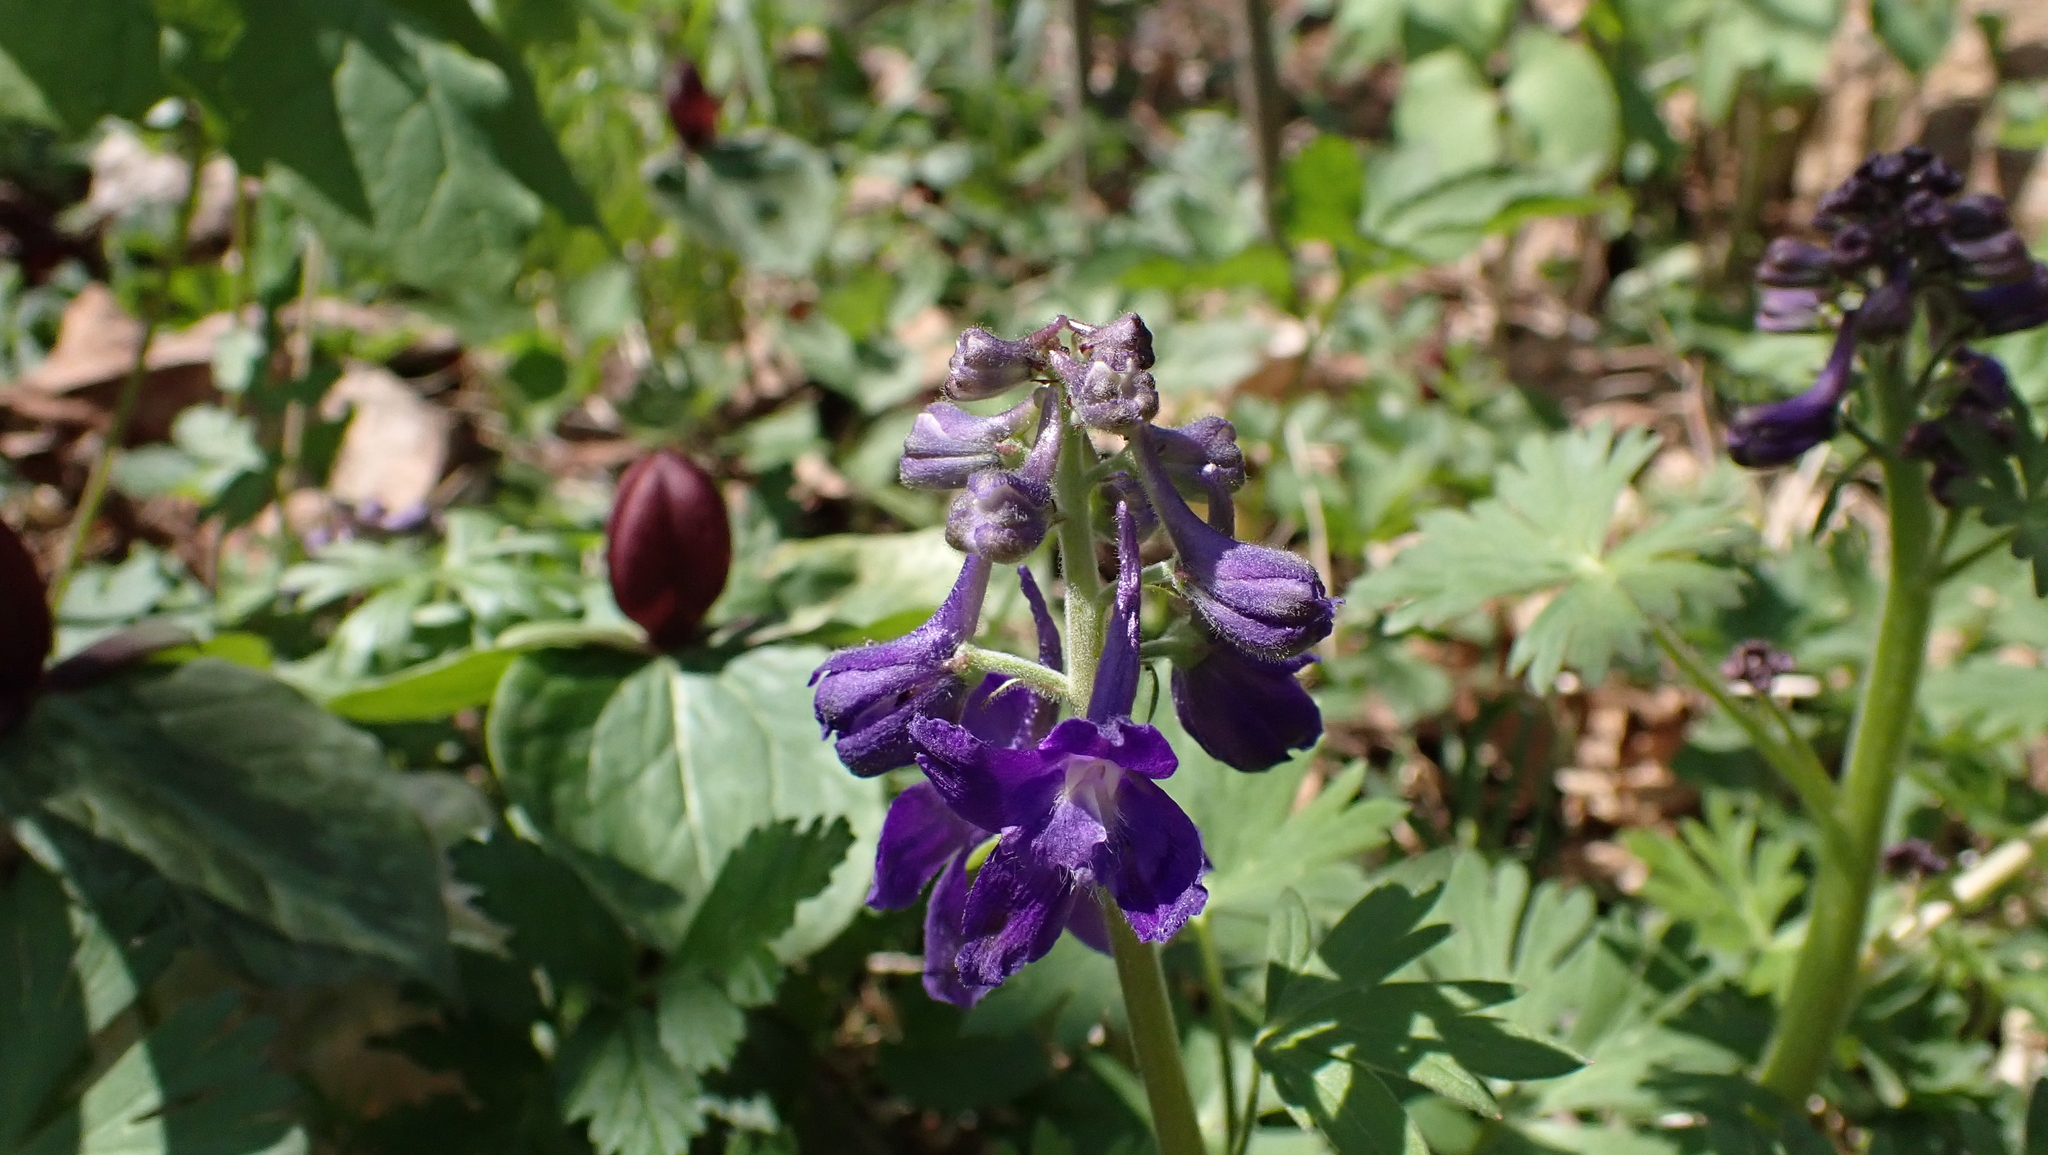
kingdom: Plantae
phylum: Tracheophyta
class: Magnoliopsida
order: Ranunculales
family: Ranunculaceae
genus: Delphinium
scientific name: Delphinium tricorne
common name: Dwarf larkspur
